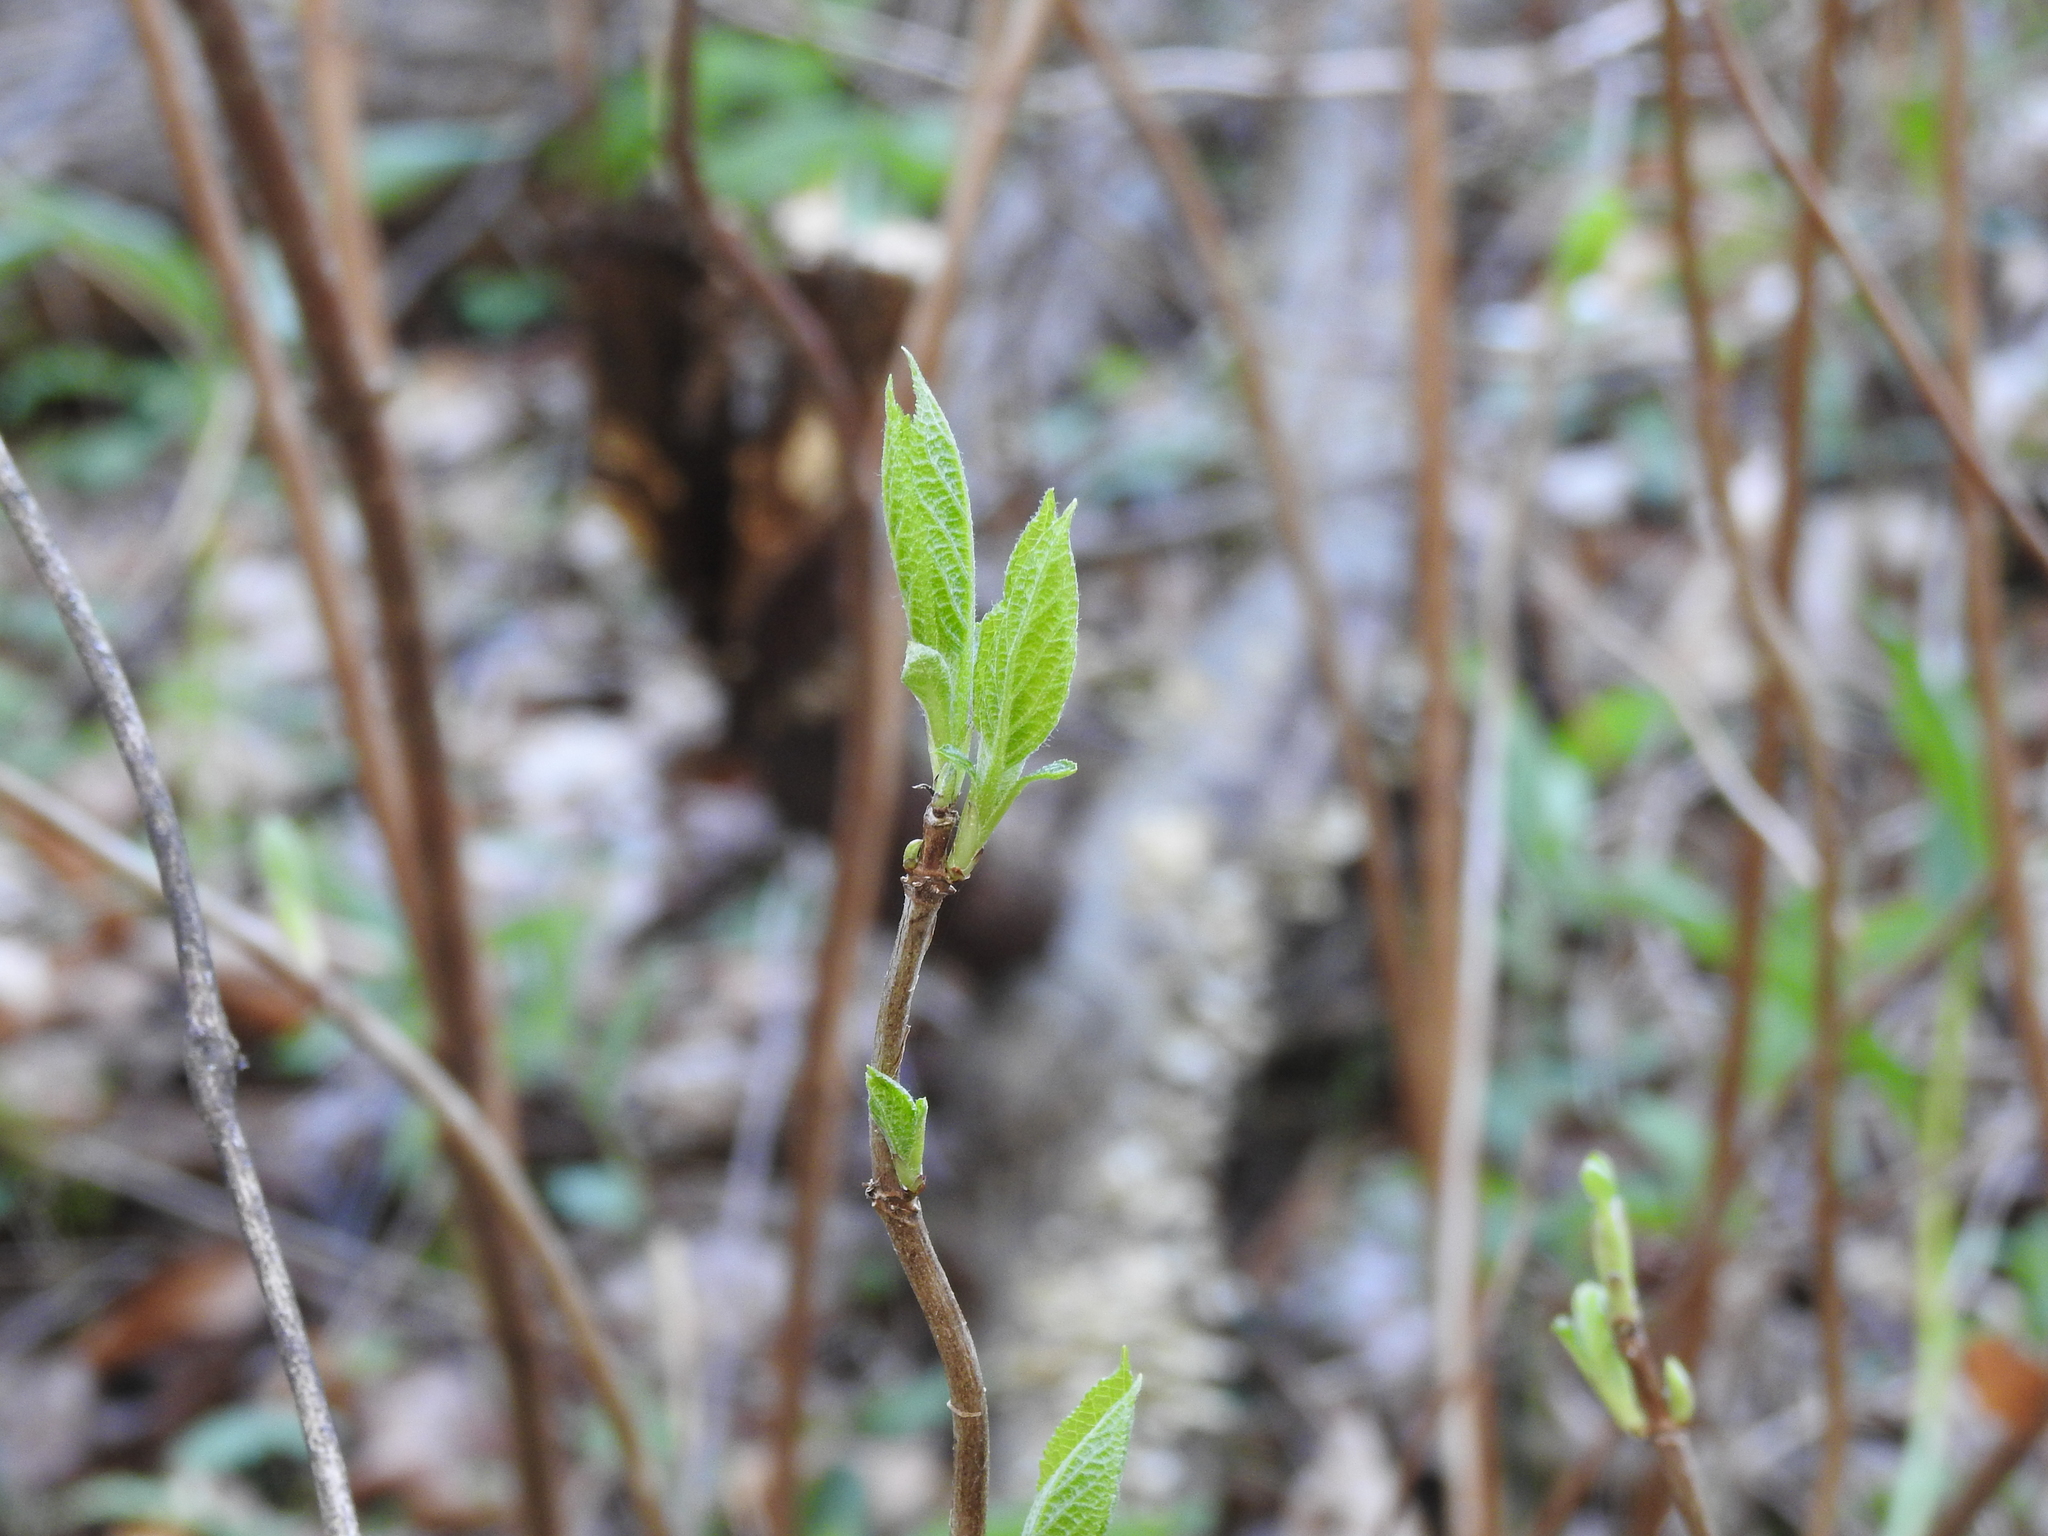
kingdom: Plantae
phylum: Tracheophyta
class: Magnoliopsida
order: Cornales
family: Hydrangeaceae
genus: Hydrangea
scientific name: Hydrangea quercifolia
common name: Oak-leaf hydrangea
